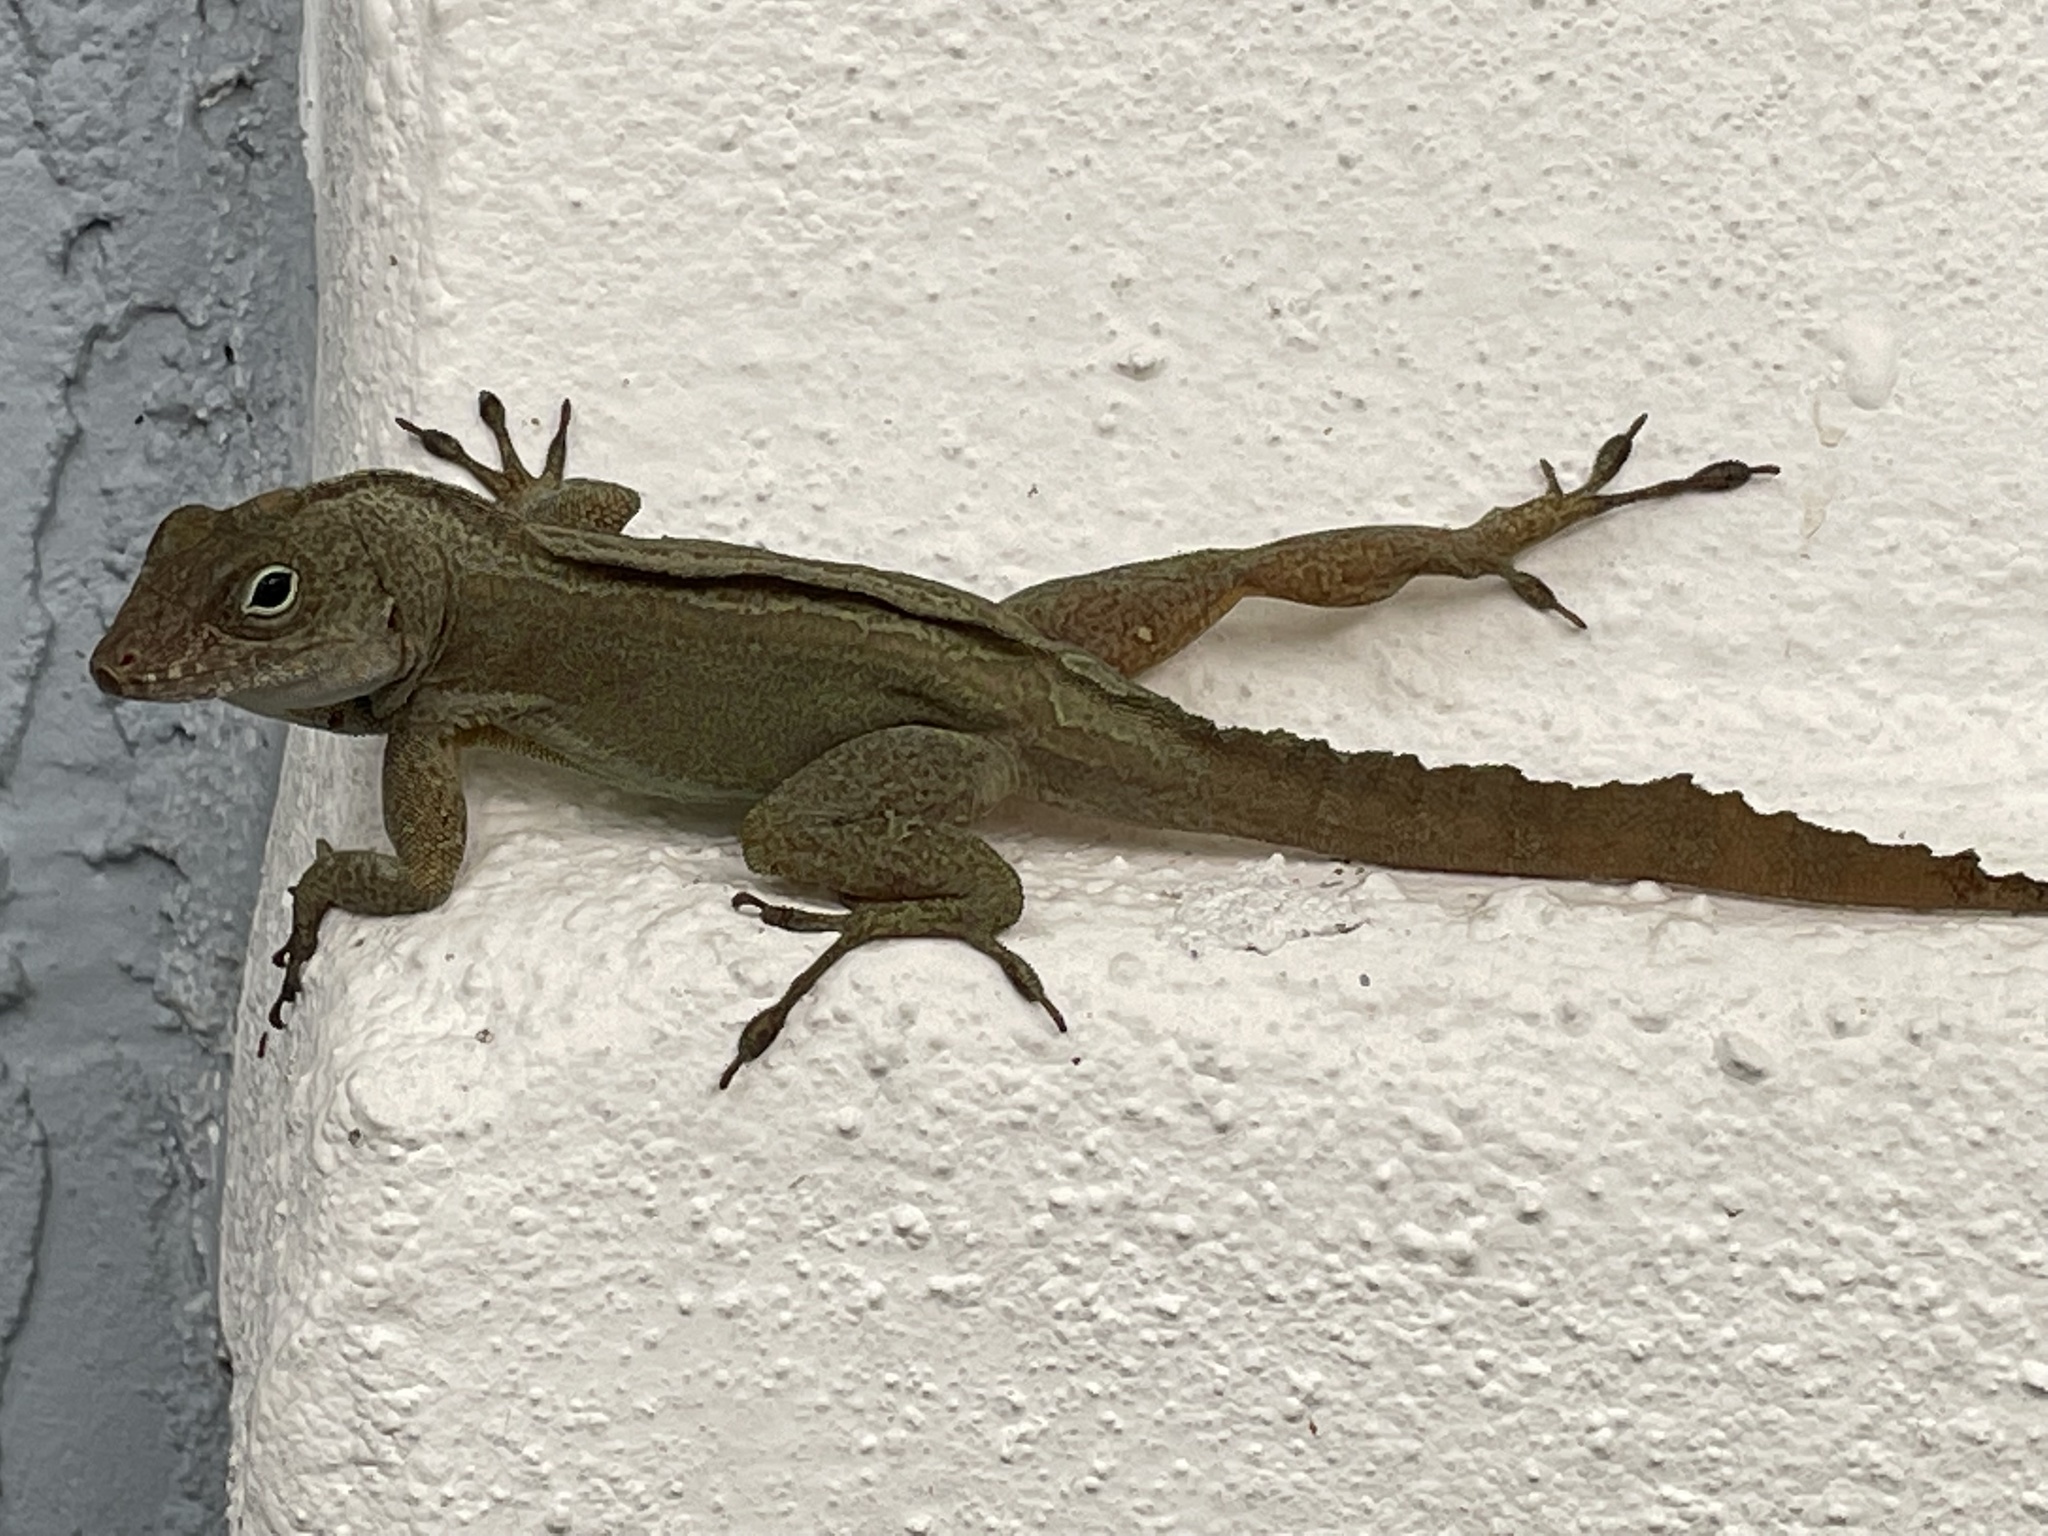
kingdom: Animalia
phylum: Chordata
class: Squamata
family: Dactyloidae
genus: Anolis
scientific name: Anolis cristatellus
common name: Crested anole
